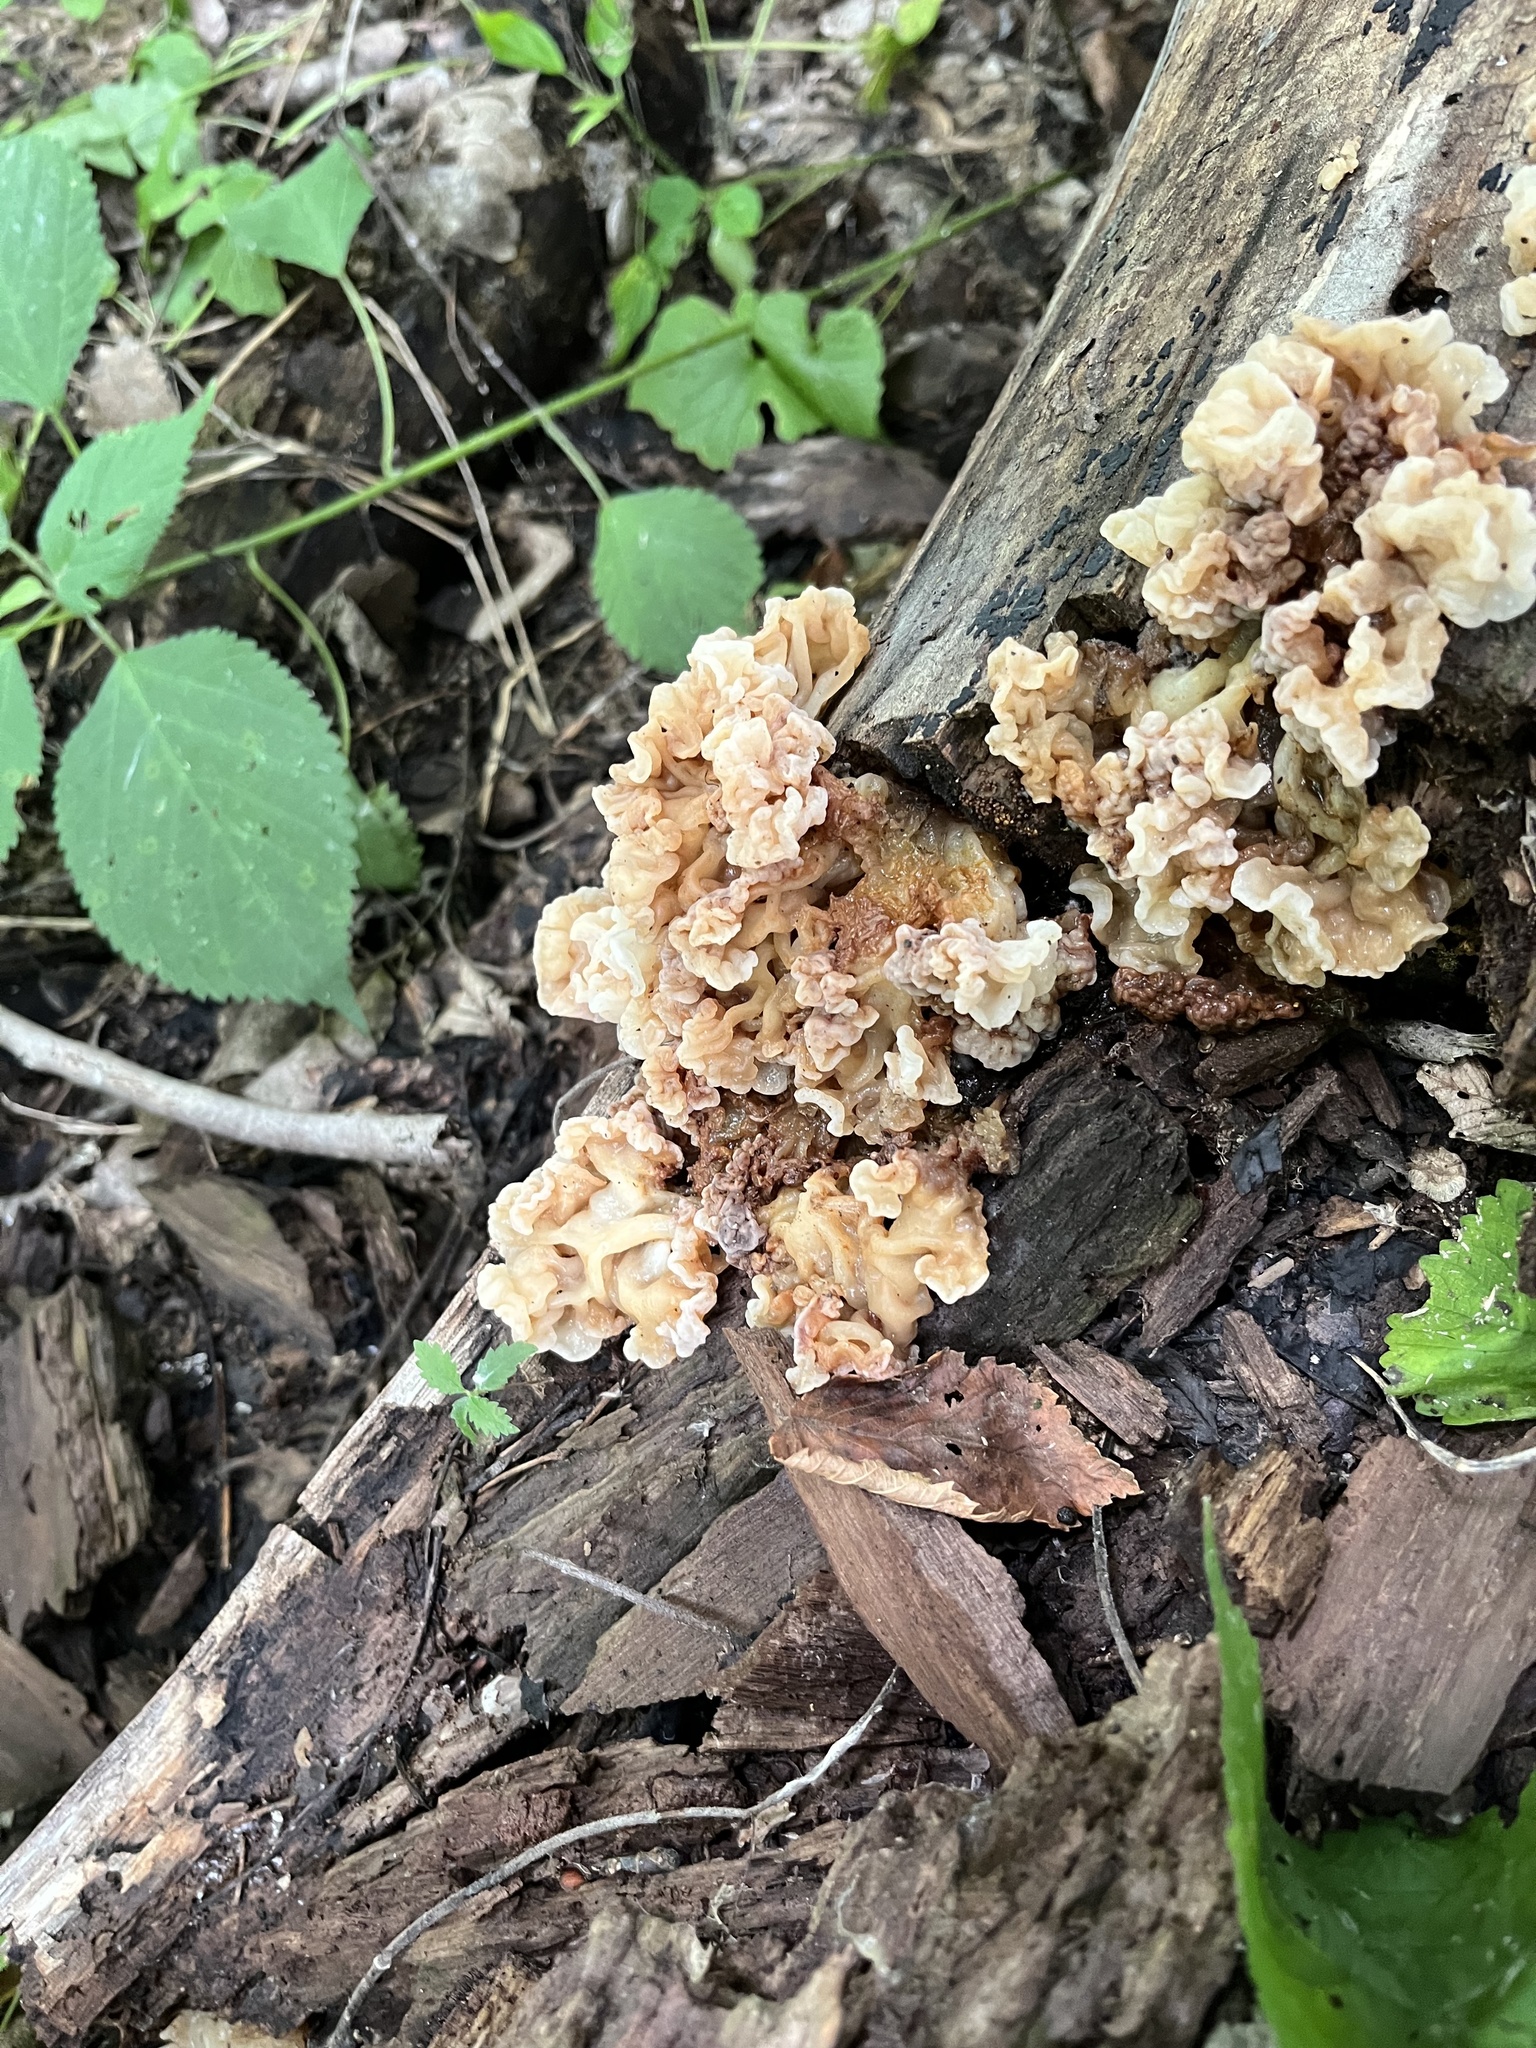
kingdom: Fungi
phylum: Basidiomycota
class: Agaricomycetes
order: Auriculariales
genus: Ductifera
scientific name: Ductifera pululahuana
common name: White jelly fungus
